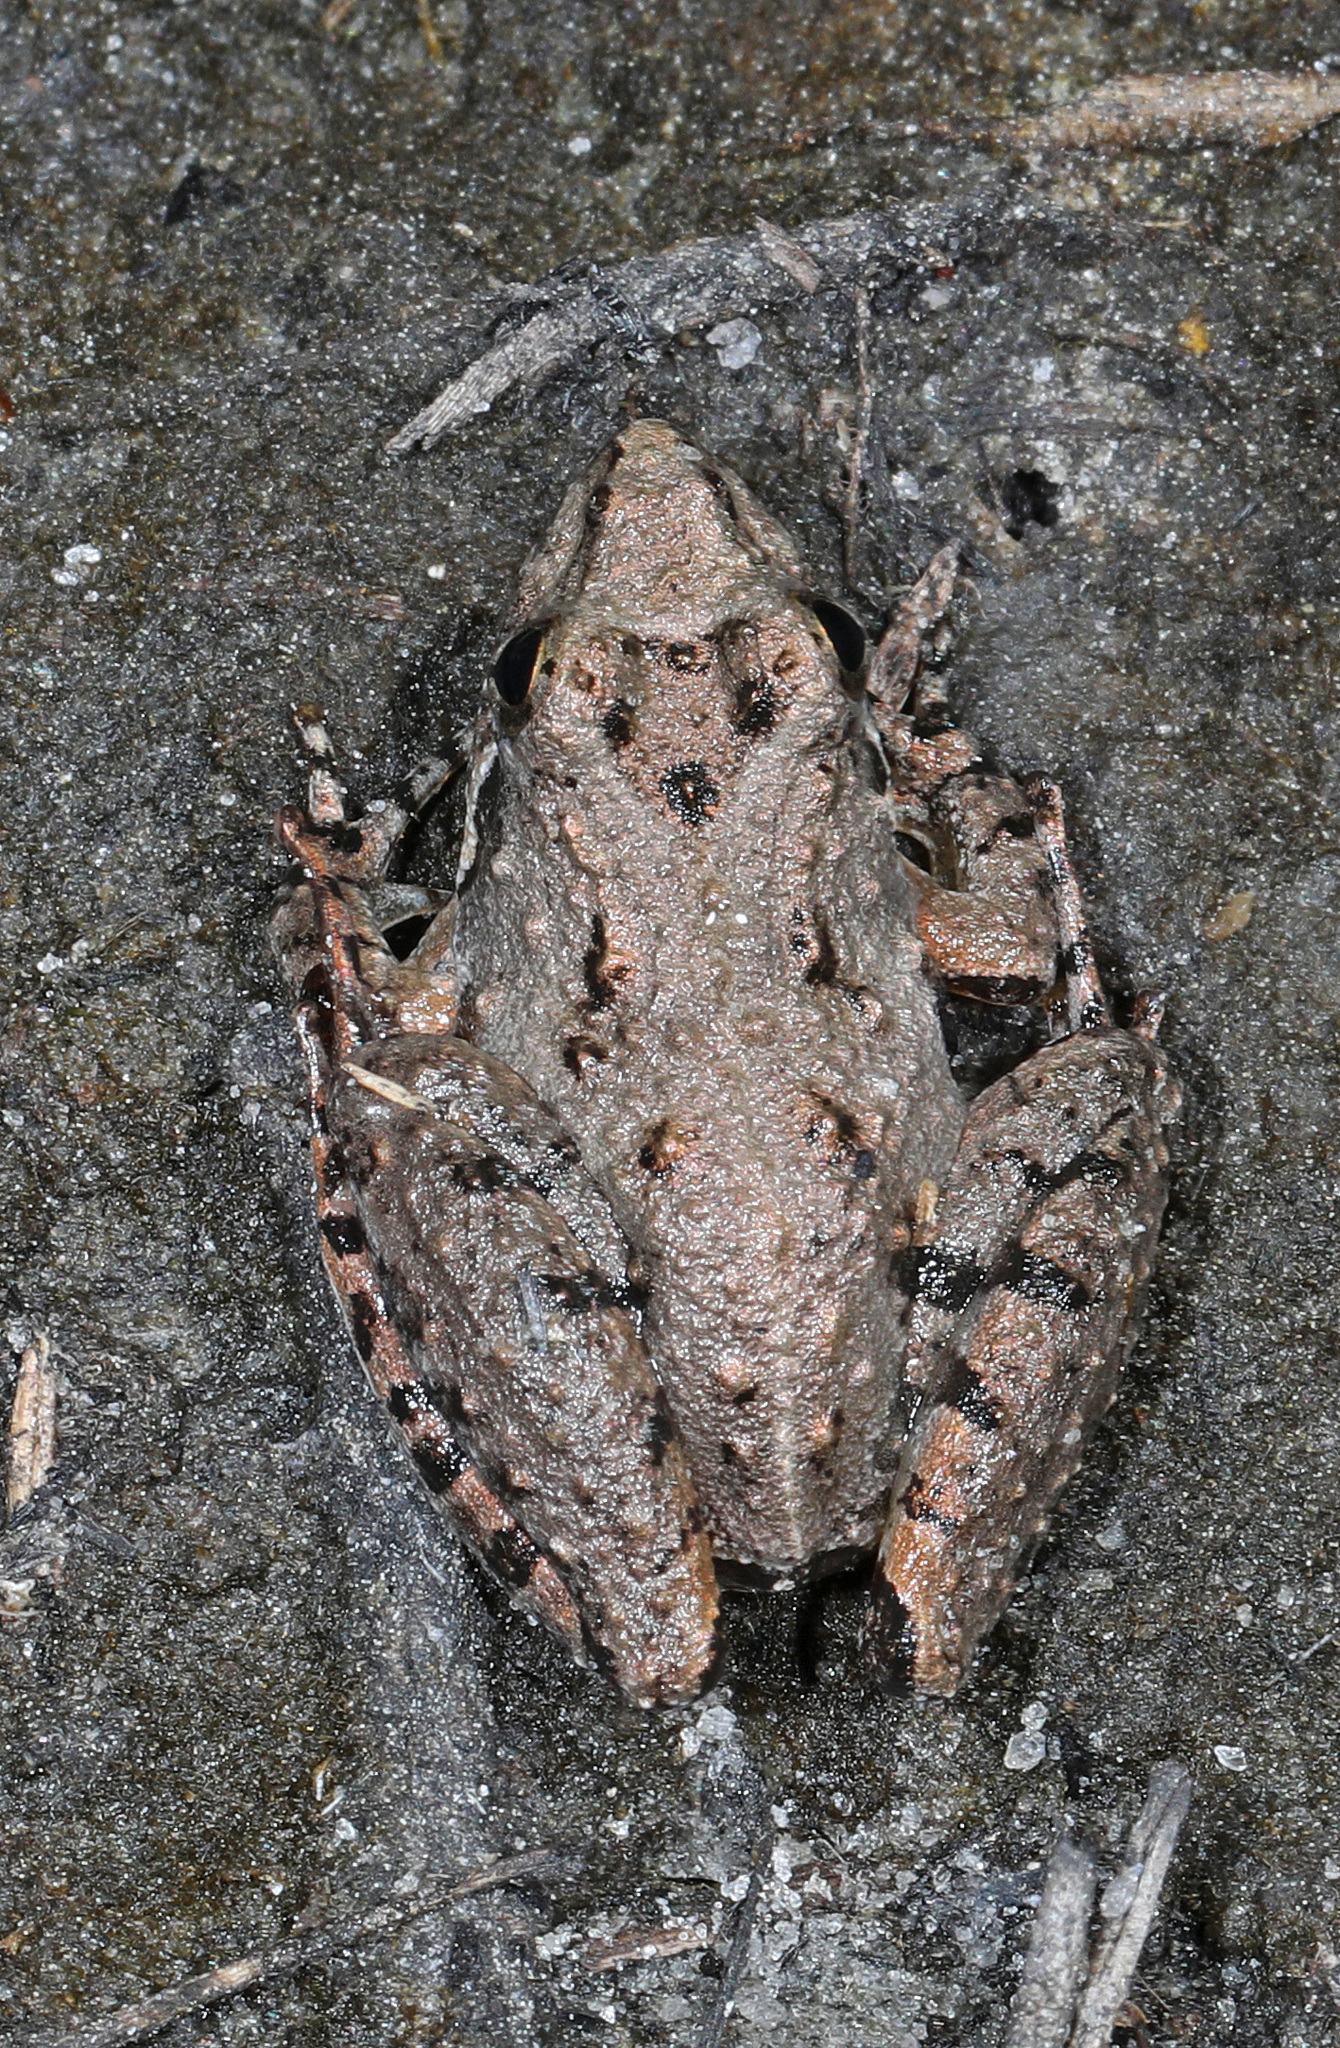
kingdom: Animalia
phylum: Chordata
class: Amphibia
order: Anura
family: Hylidae
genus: Acris
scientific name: Acris gryllus
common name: Southern cricket frog
